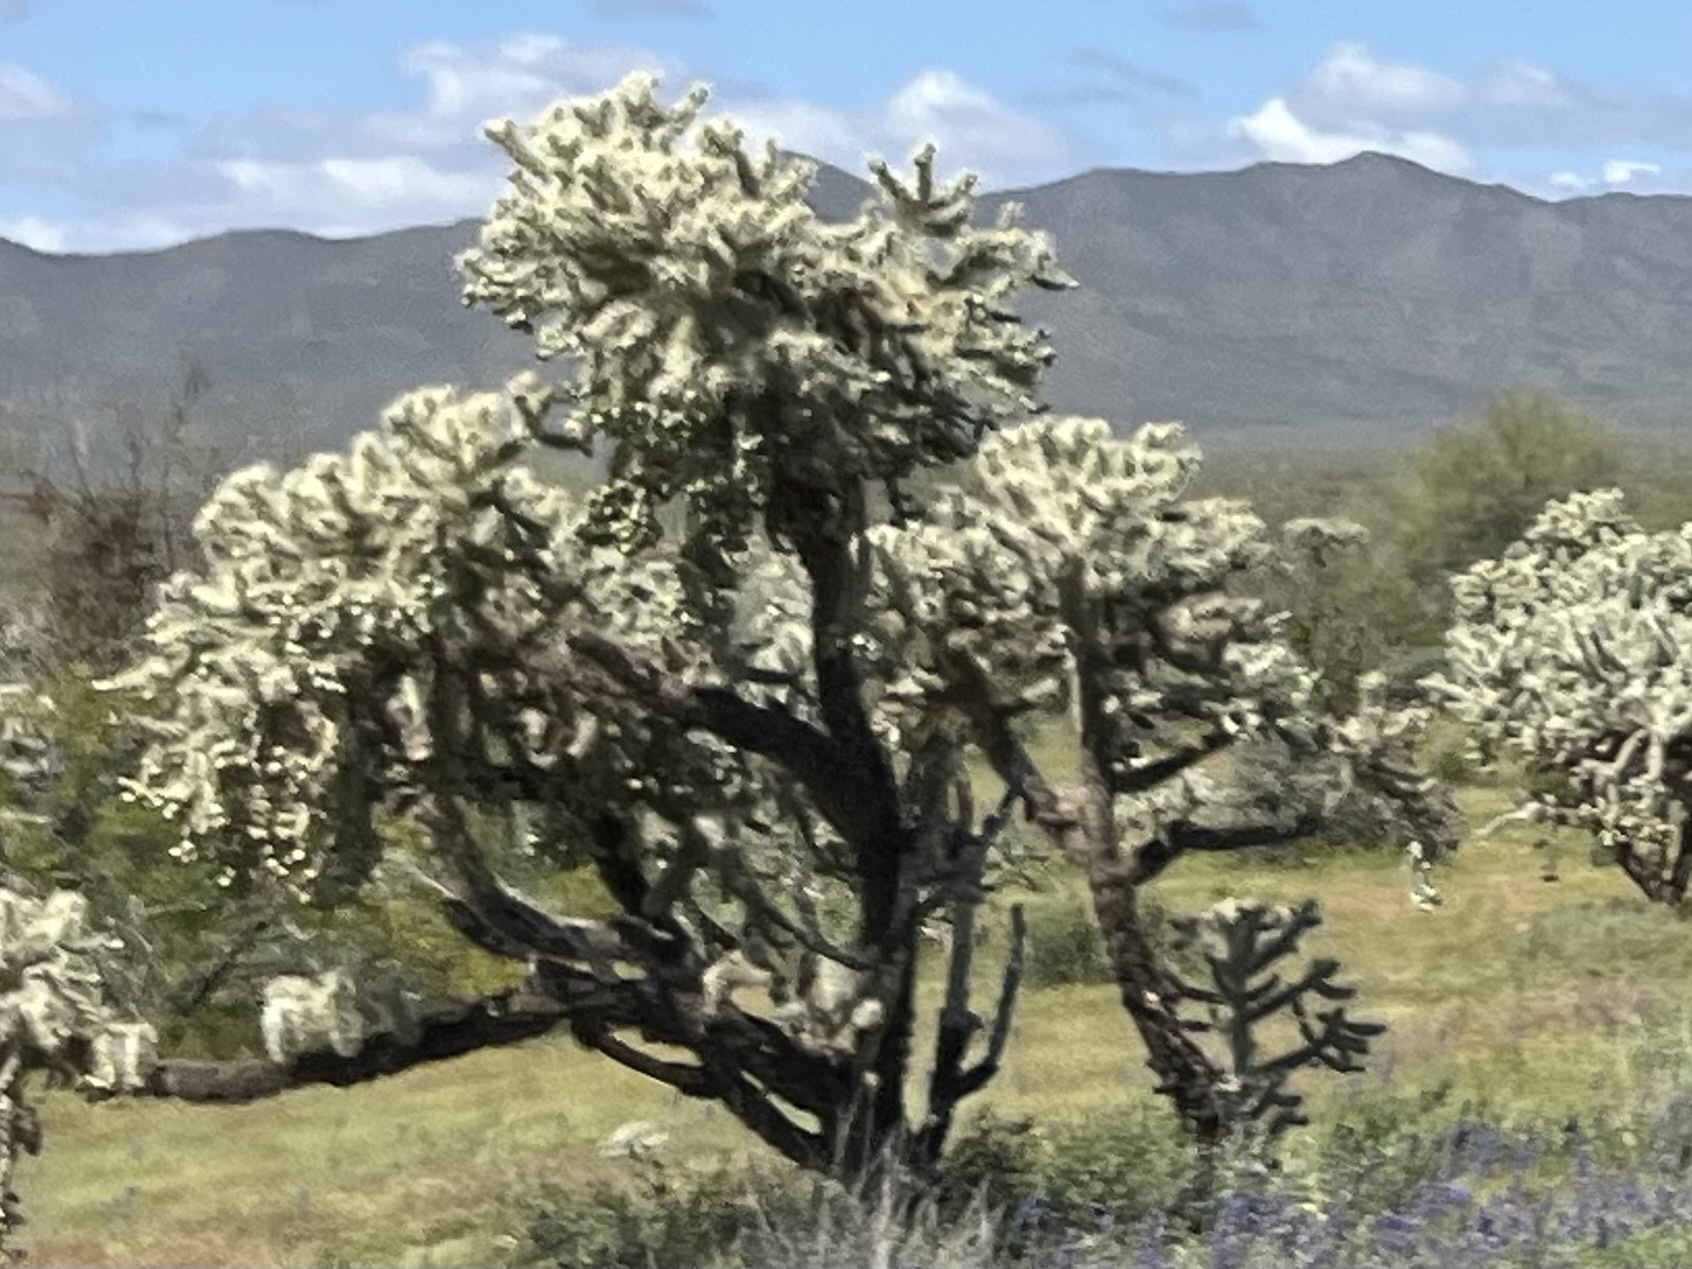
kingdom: Plantae
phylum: Tracheophyta
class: Magnoliopsida
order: Caryophyllales
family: Cactaceae
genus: Cylindropuntia
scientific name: Cylindropuntia fulgida
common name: Jumping cholla
